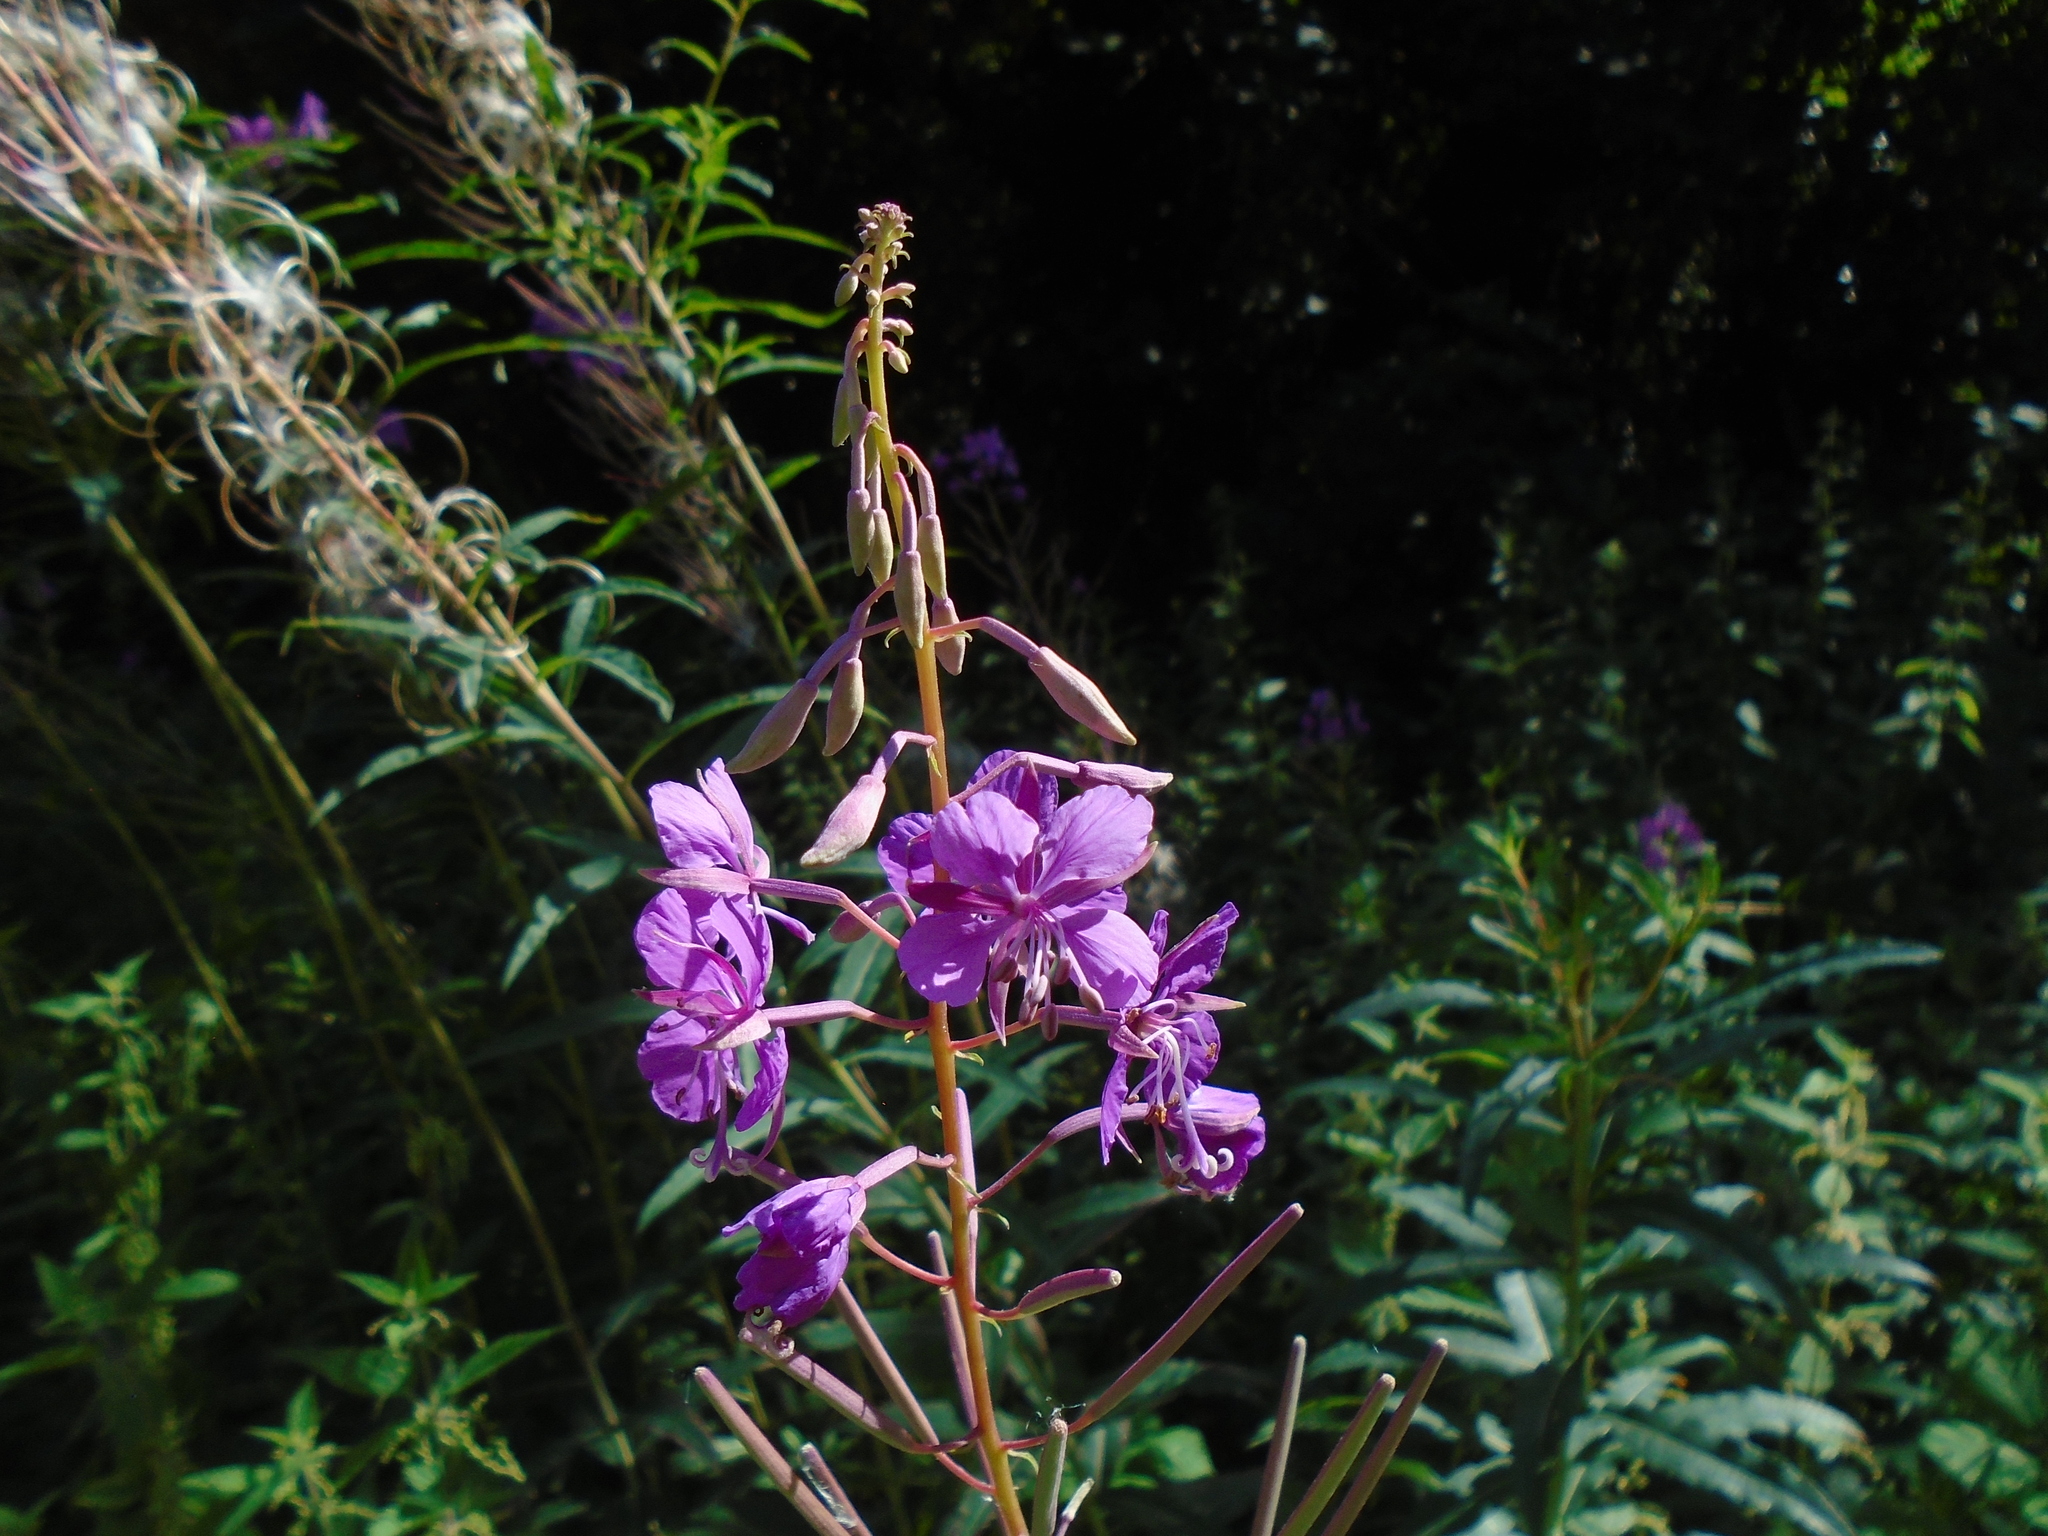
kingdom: Plantae
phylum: Tracheophyta
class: Magnoliopsida
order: Myrtales
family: Onagraceae
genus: Chamaenerion
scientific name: Chamaenerion angustifolium
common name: Fireweed
